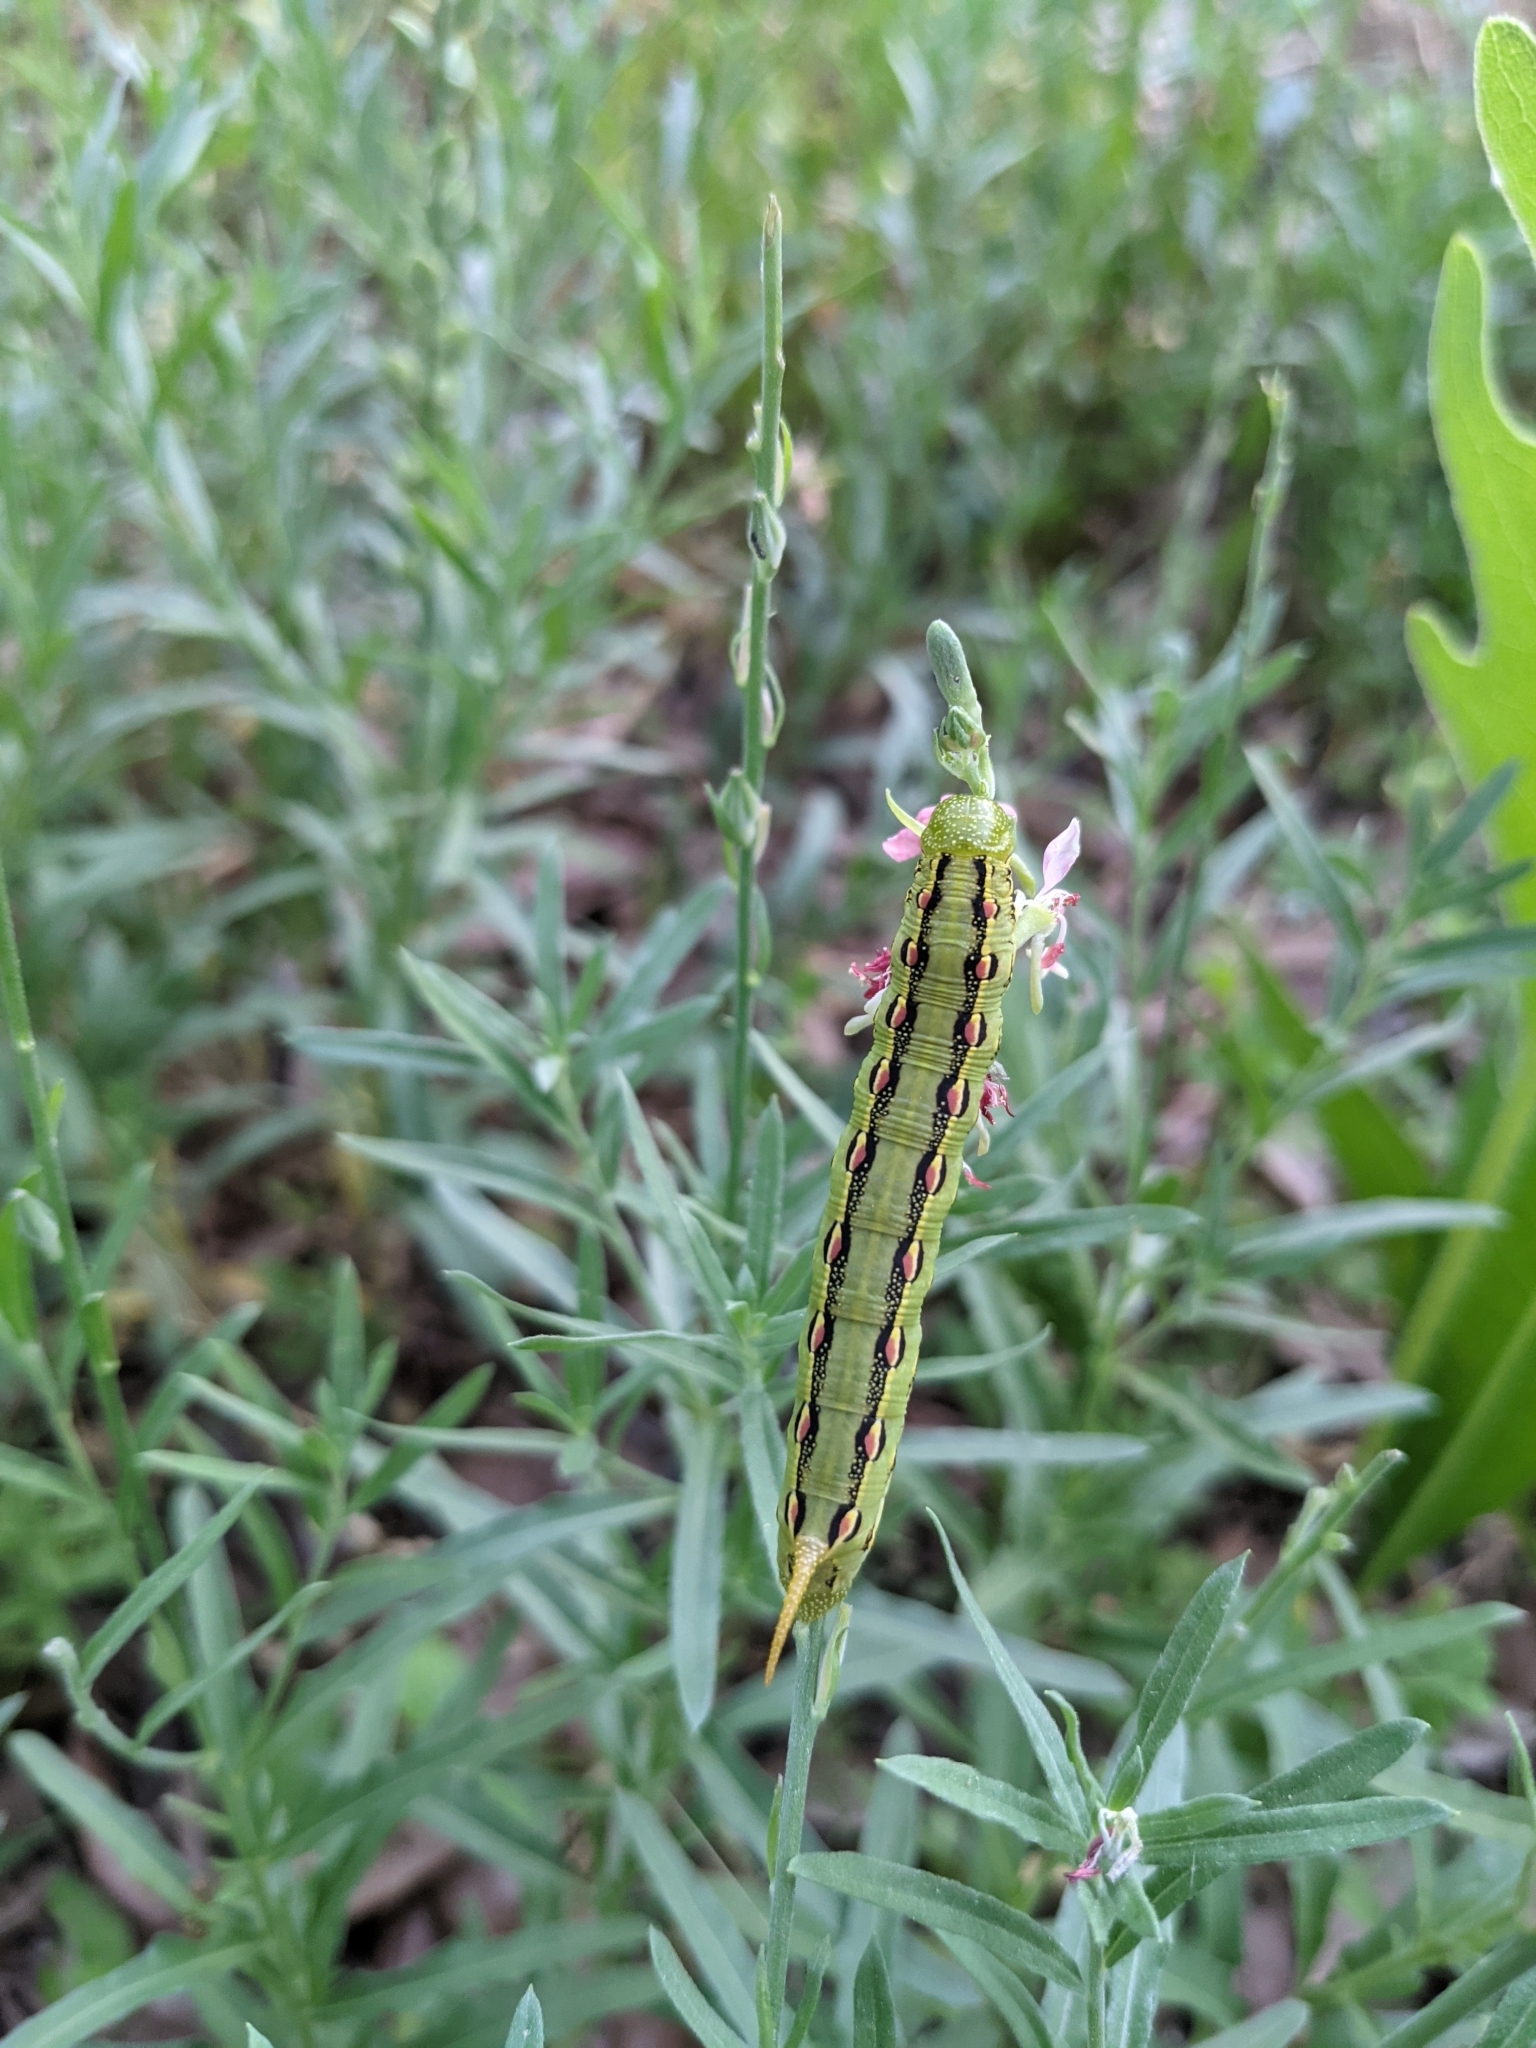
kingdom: Animalia
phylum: Arthropoda
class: Insecta
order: Lepidoptera
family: Sphingidae
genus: Hyles
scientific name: Hyles lineata
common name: White-lined sphinx
